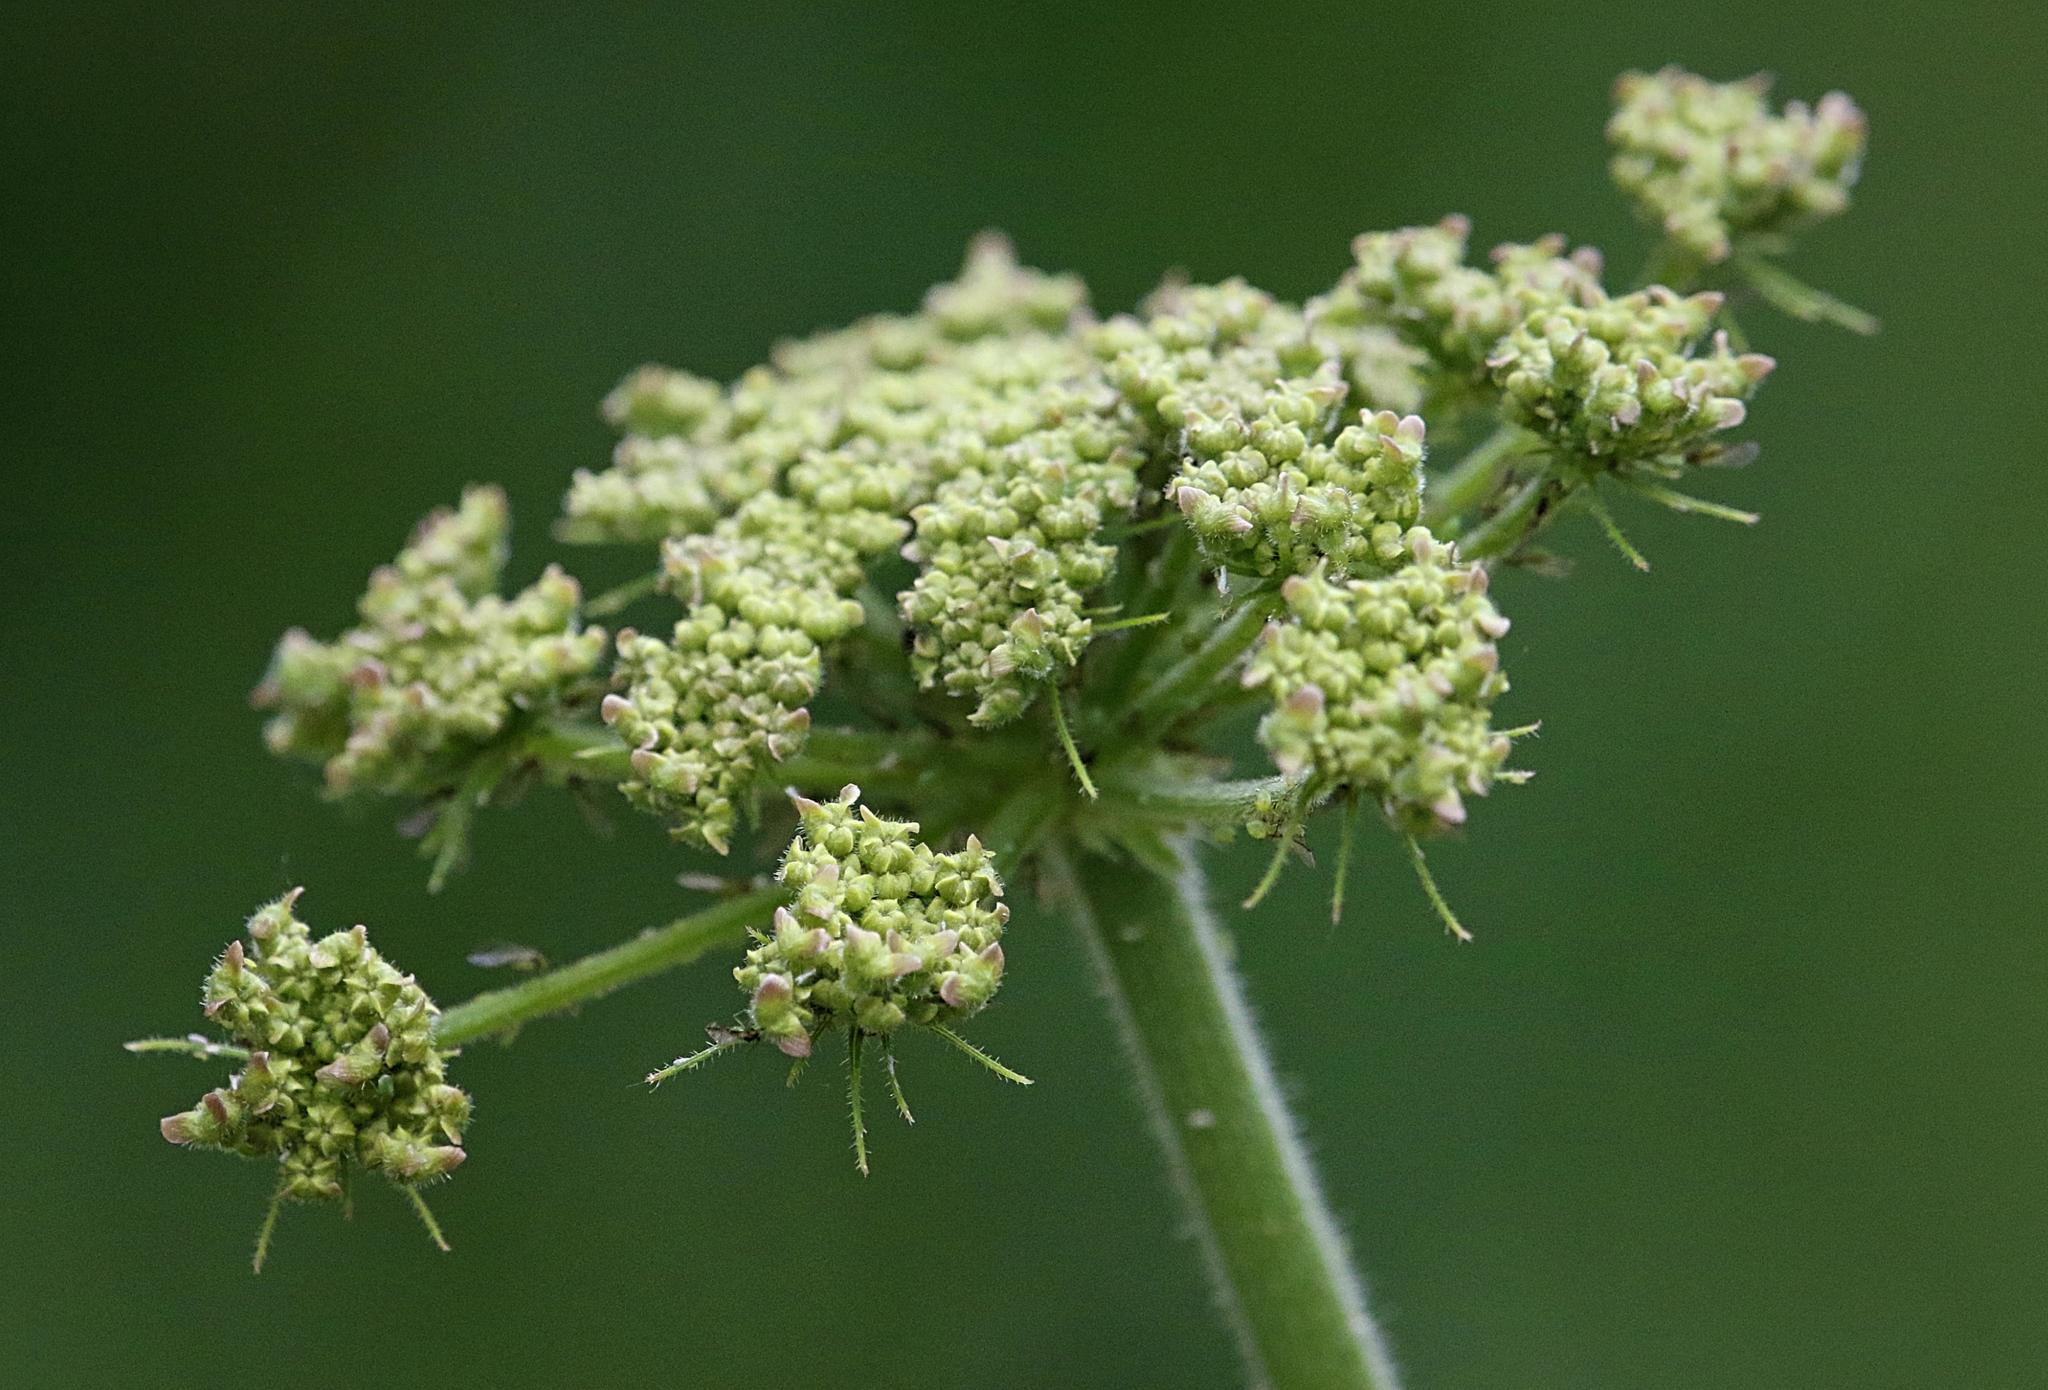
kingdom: Plantae
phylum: Tracheophyta
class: Magnoliopsida
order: Apiales
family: Apiaceae
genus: Heracleum
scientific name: Heracleum sphondylium
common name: Hogweed
